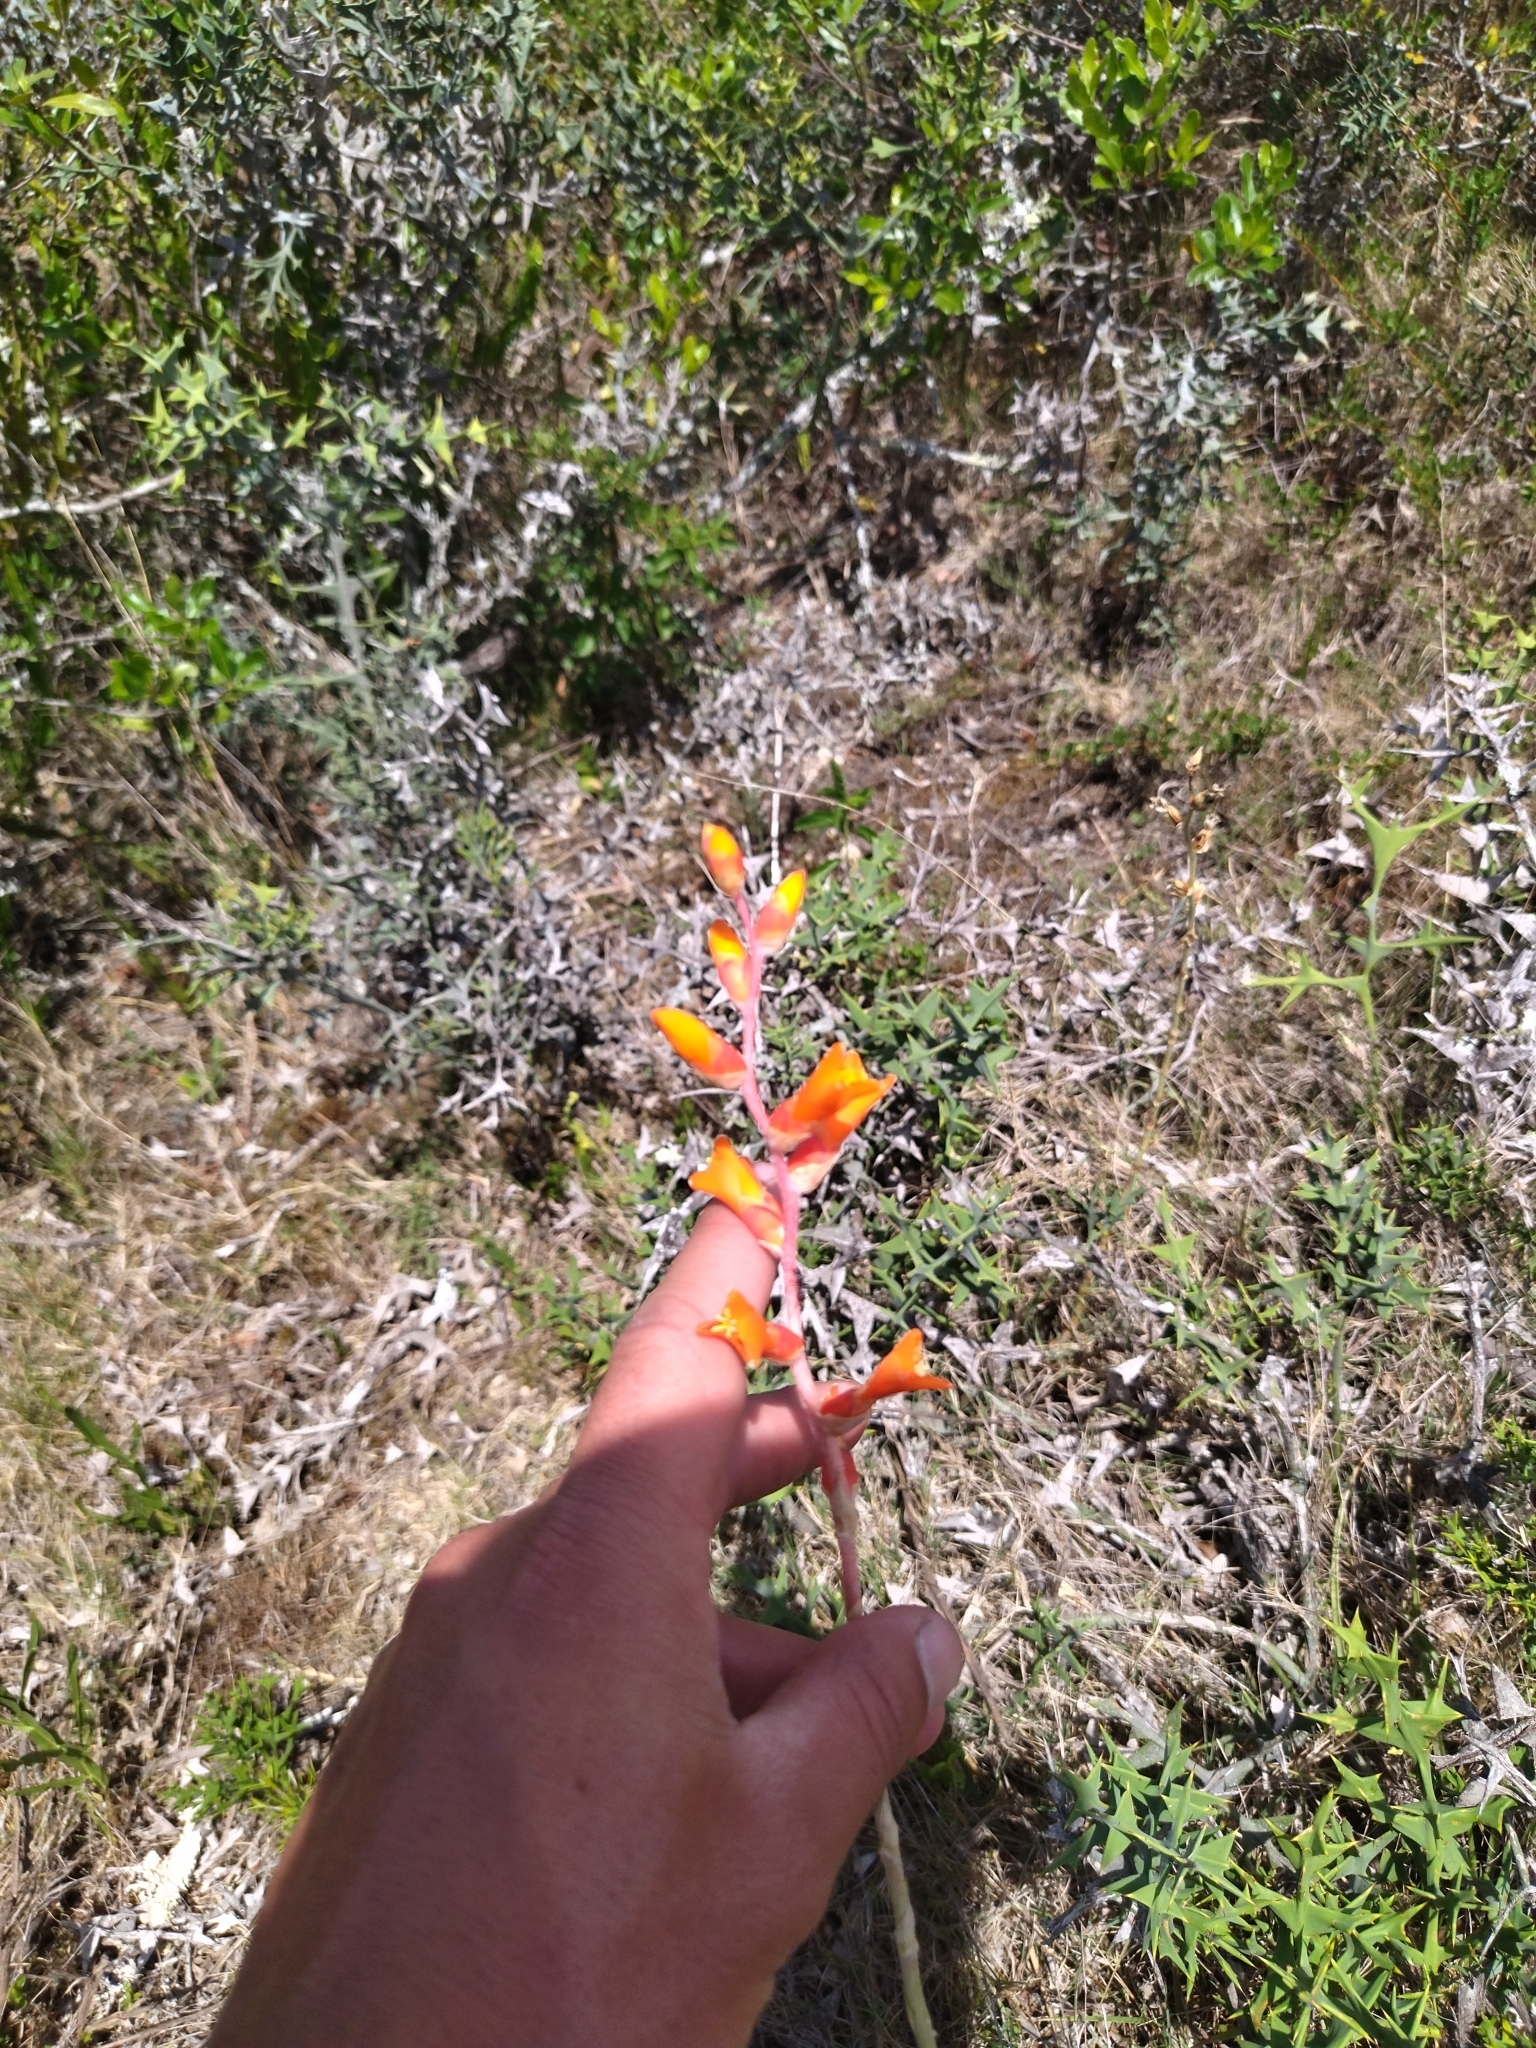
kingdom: Plantae
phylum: Tracheophyta
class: Liliopsida
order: Poales
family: Bromeliaceae
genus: Dyckia
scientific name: Dyckia remotiflora
